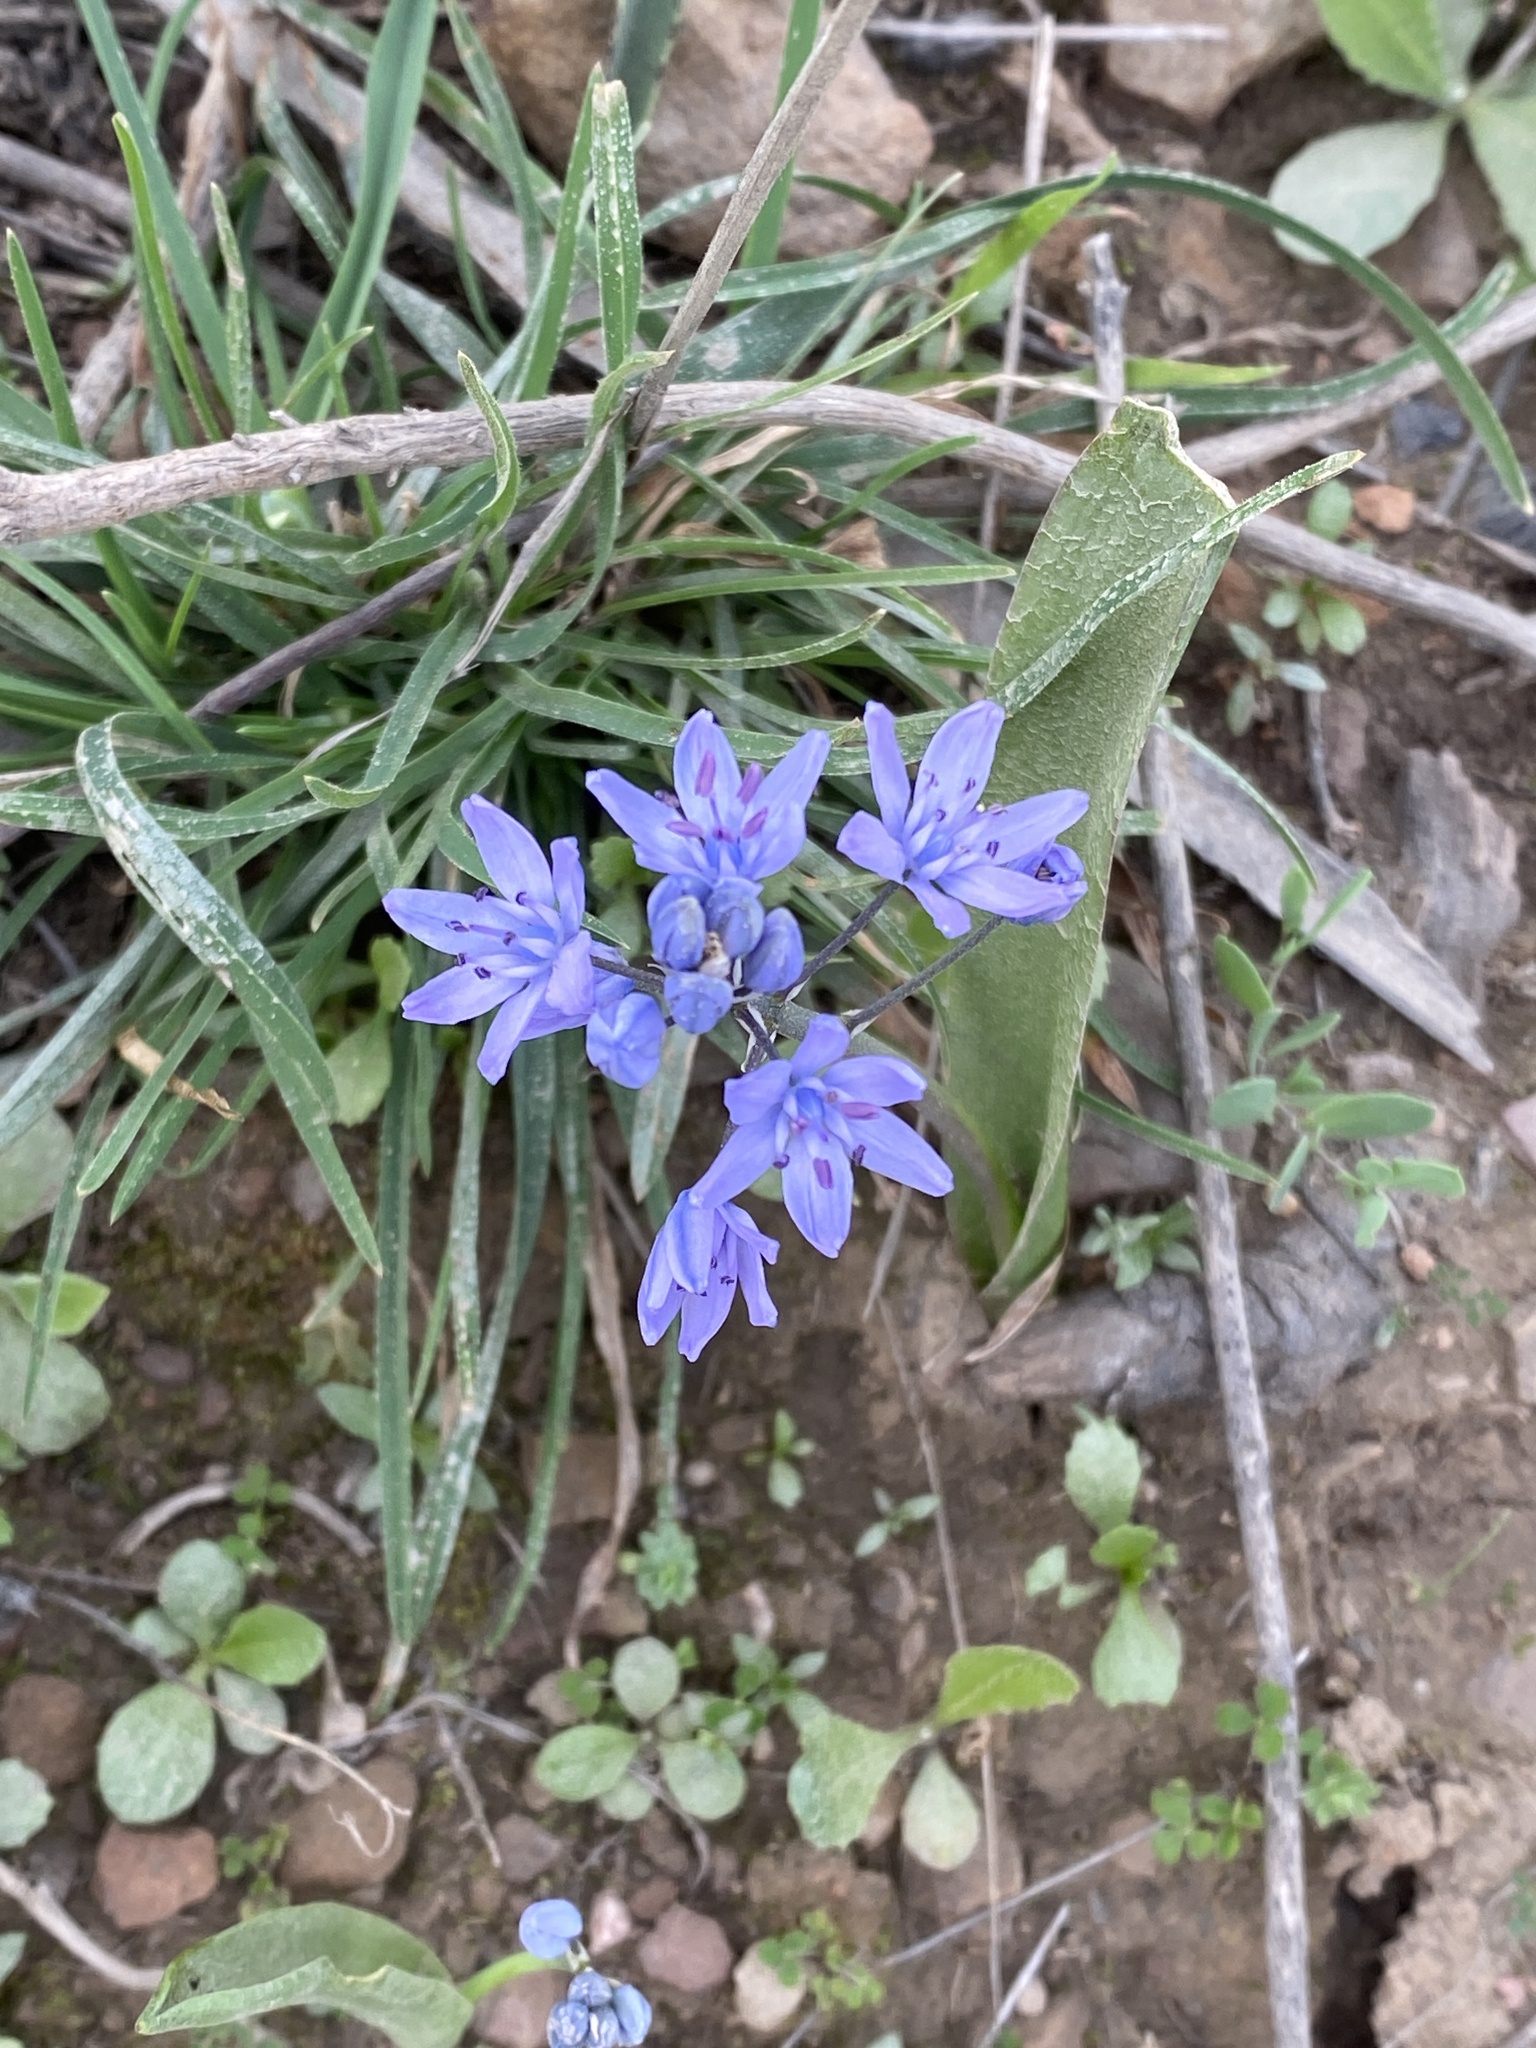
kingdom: Plantae
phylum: Tracheophyta
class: Liliopsida
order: Asparagales
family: Asparagaceae
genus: Scilla
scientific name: Scilla monophyllos
